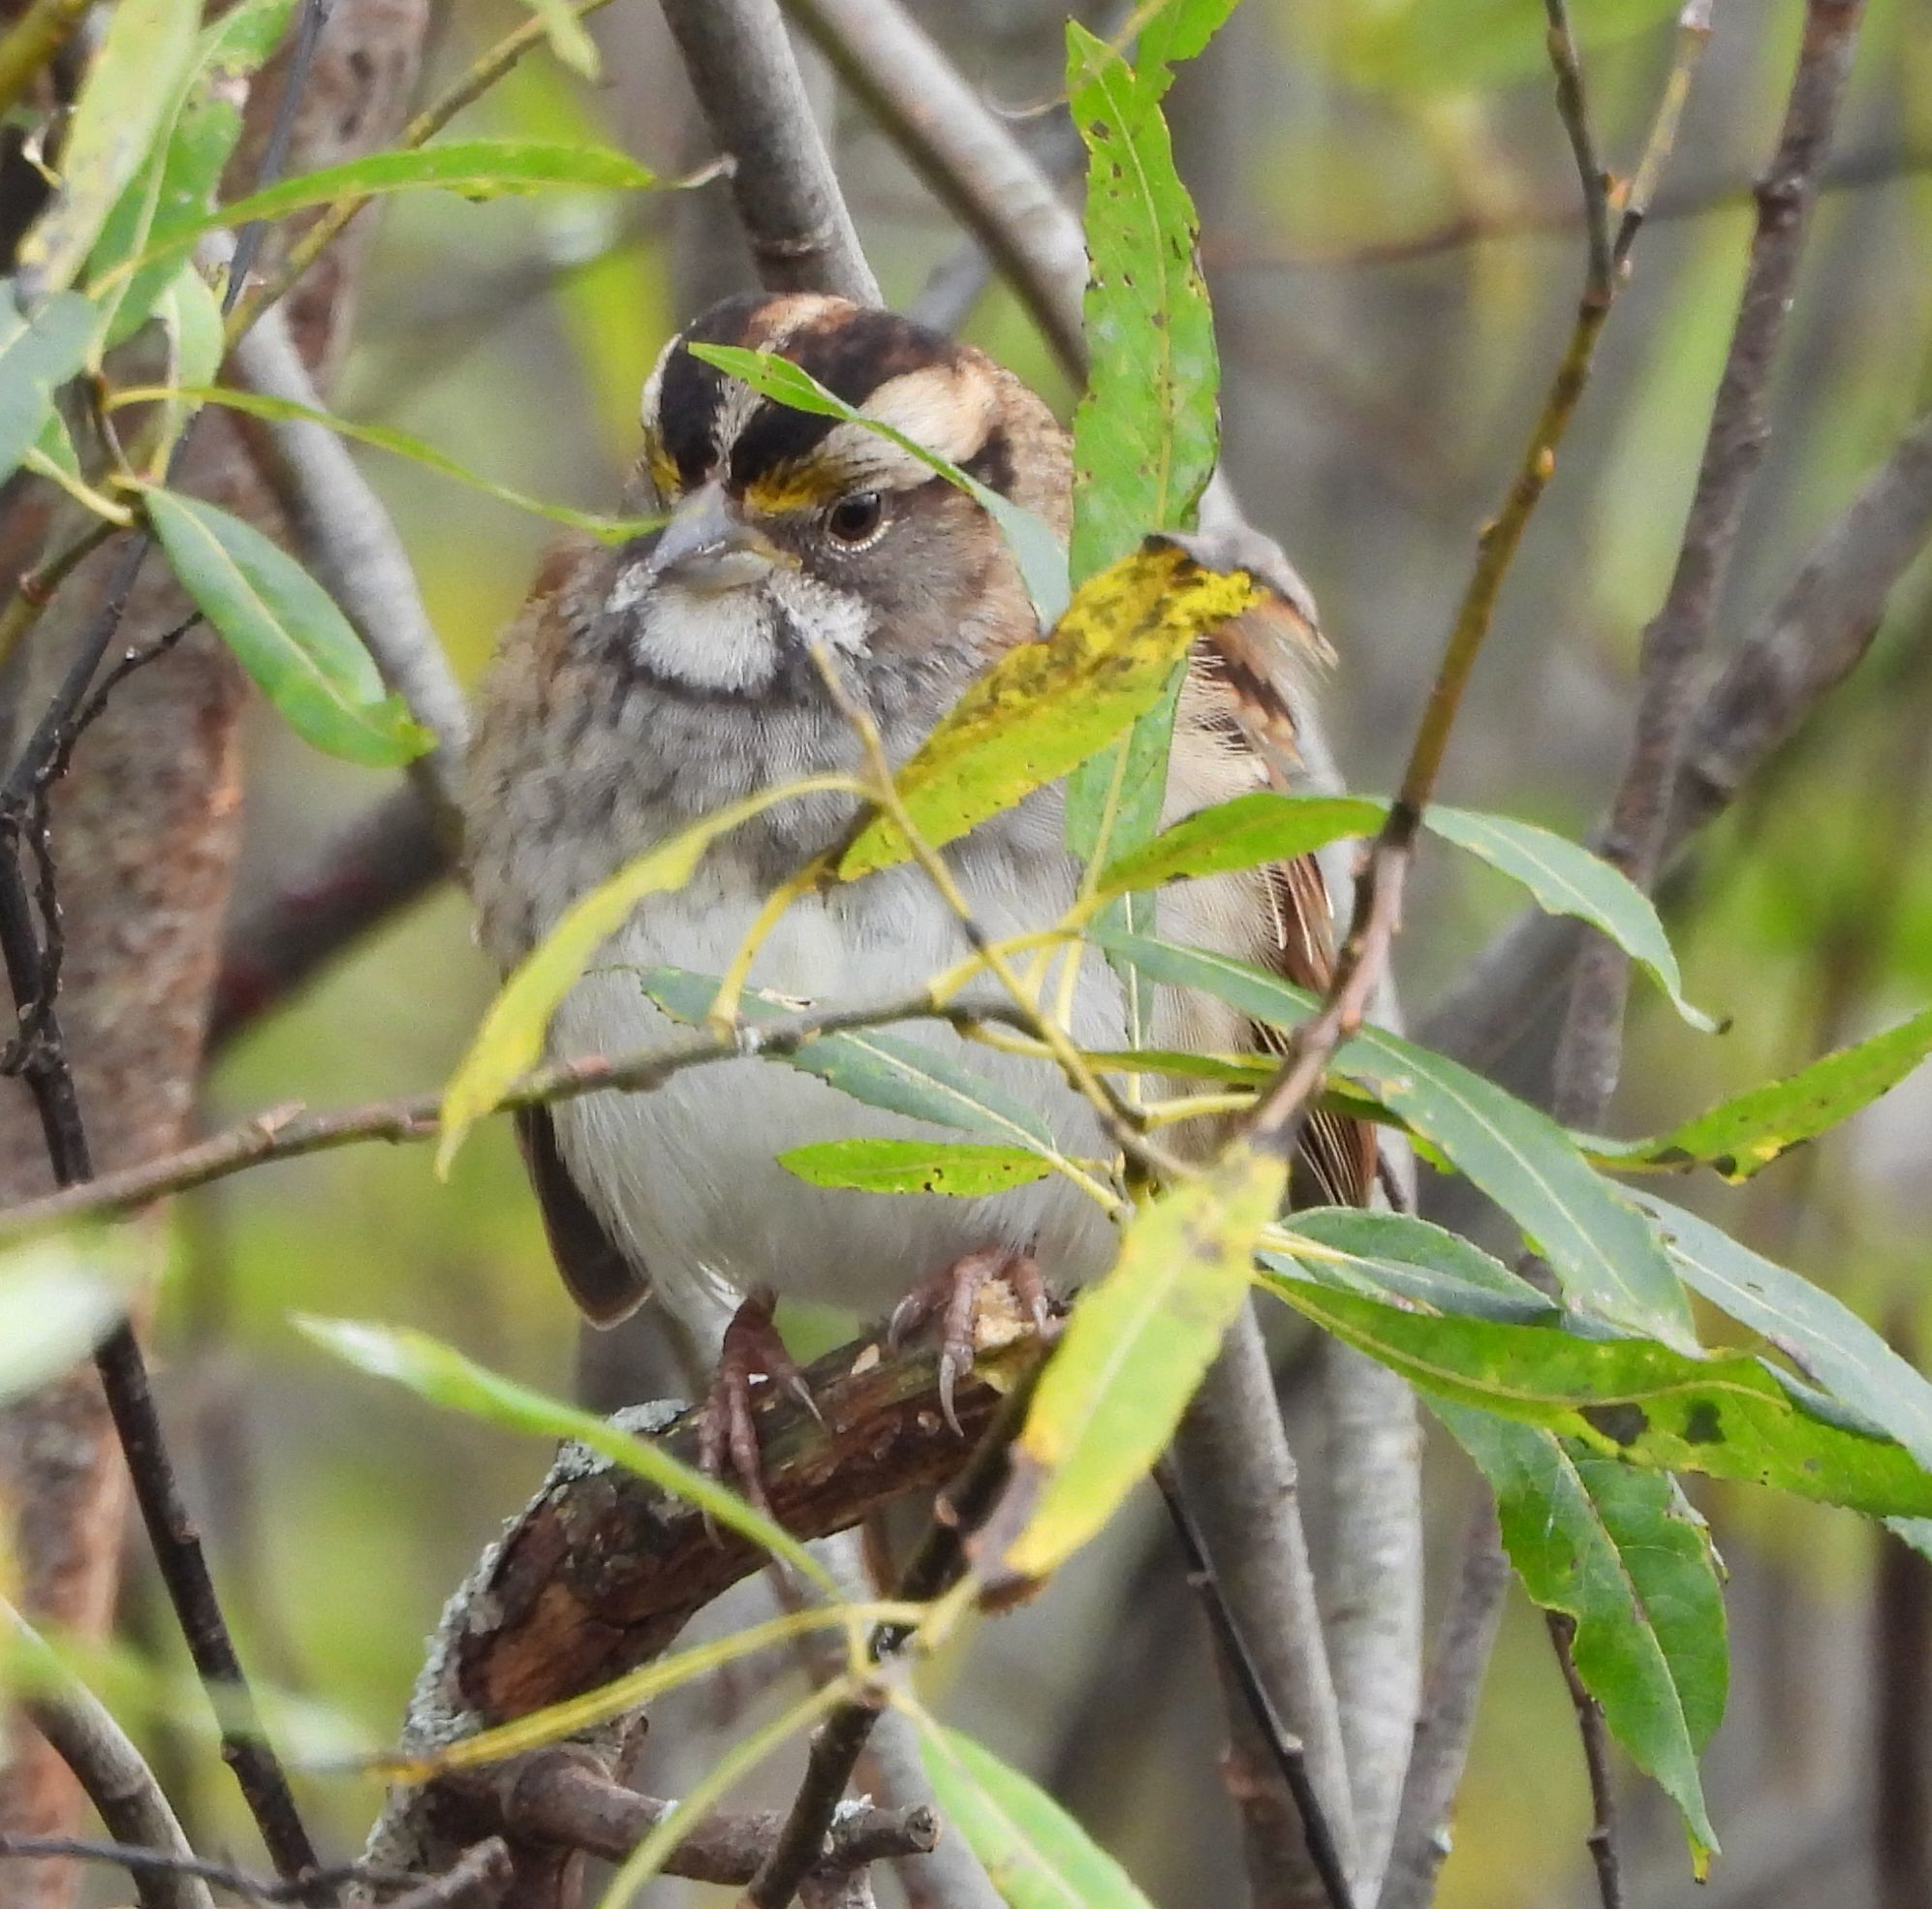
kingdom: Animalia
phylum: Chordata
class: Aves
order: Passeriformes
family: Passerellidae
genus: Zonotrichia
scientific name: Zonotrichia albicollis
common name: White-throated sparrow
